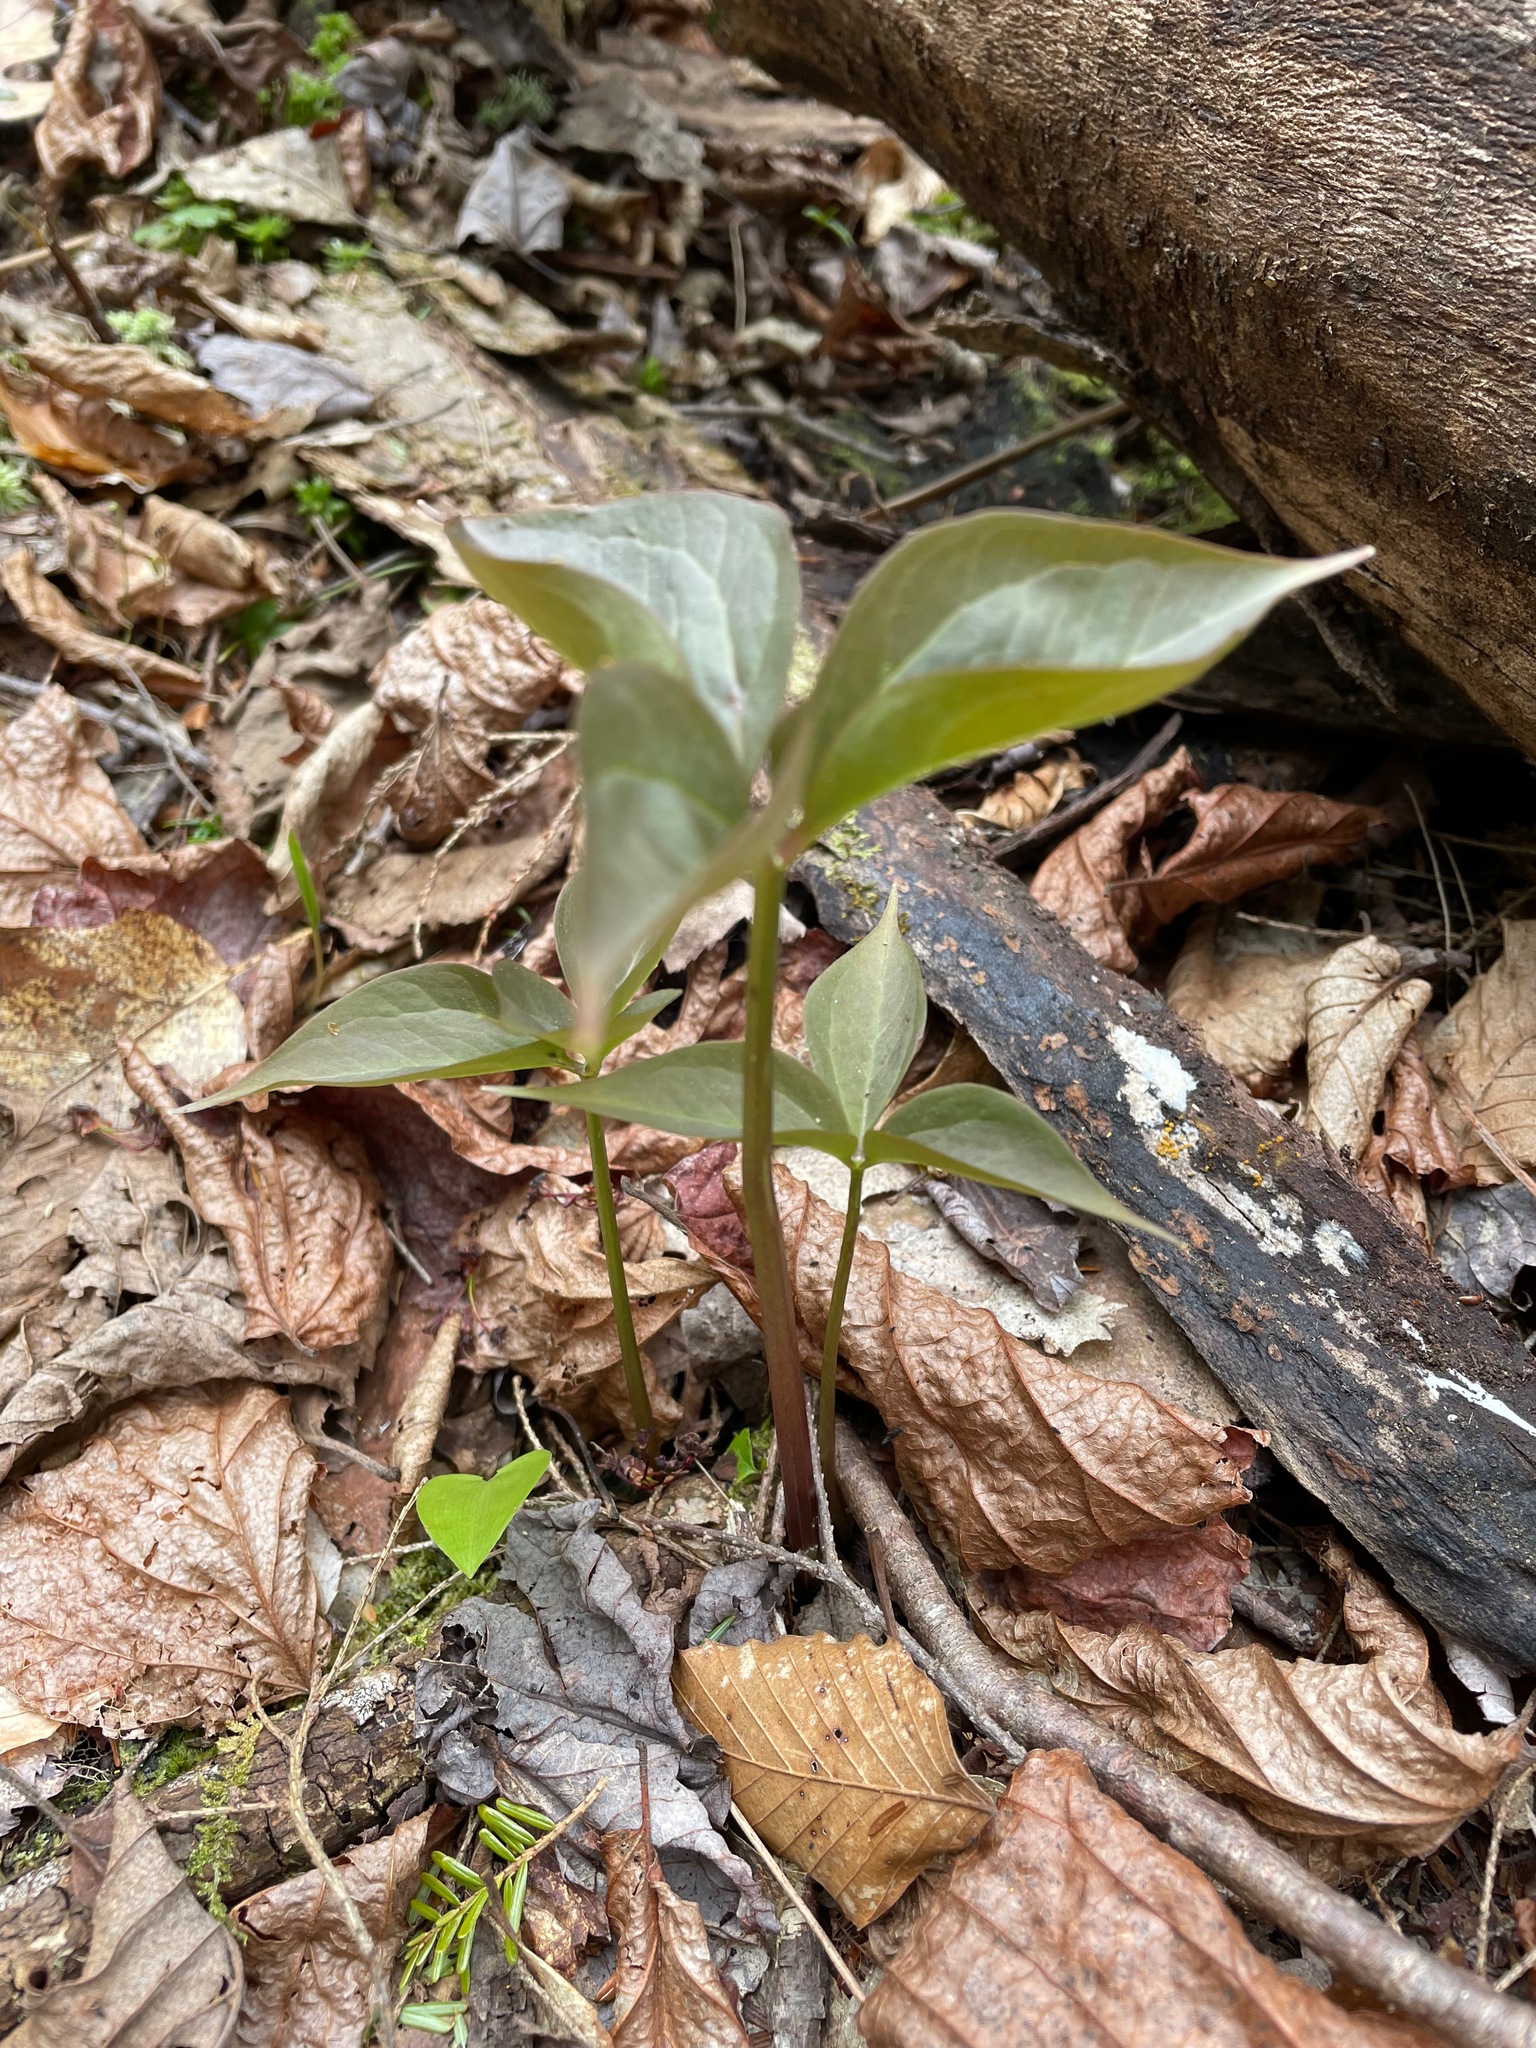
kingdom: Plantae
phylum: Tracheophyta
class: Liliopsida
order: Liliales
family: Melanthiaceae
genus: Trillium
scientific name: Trillium undulatum
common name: Paint trillium
